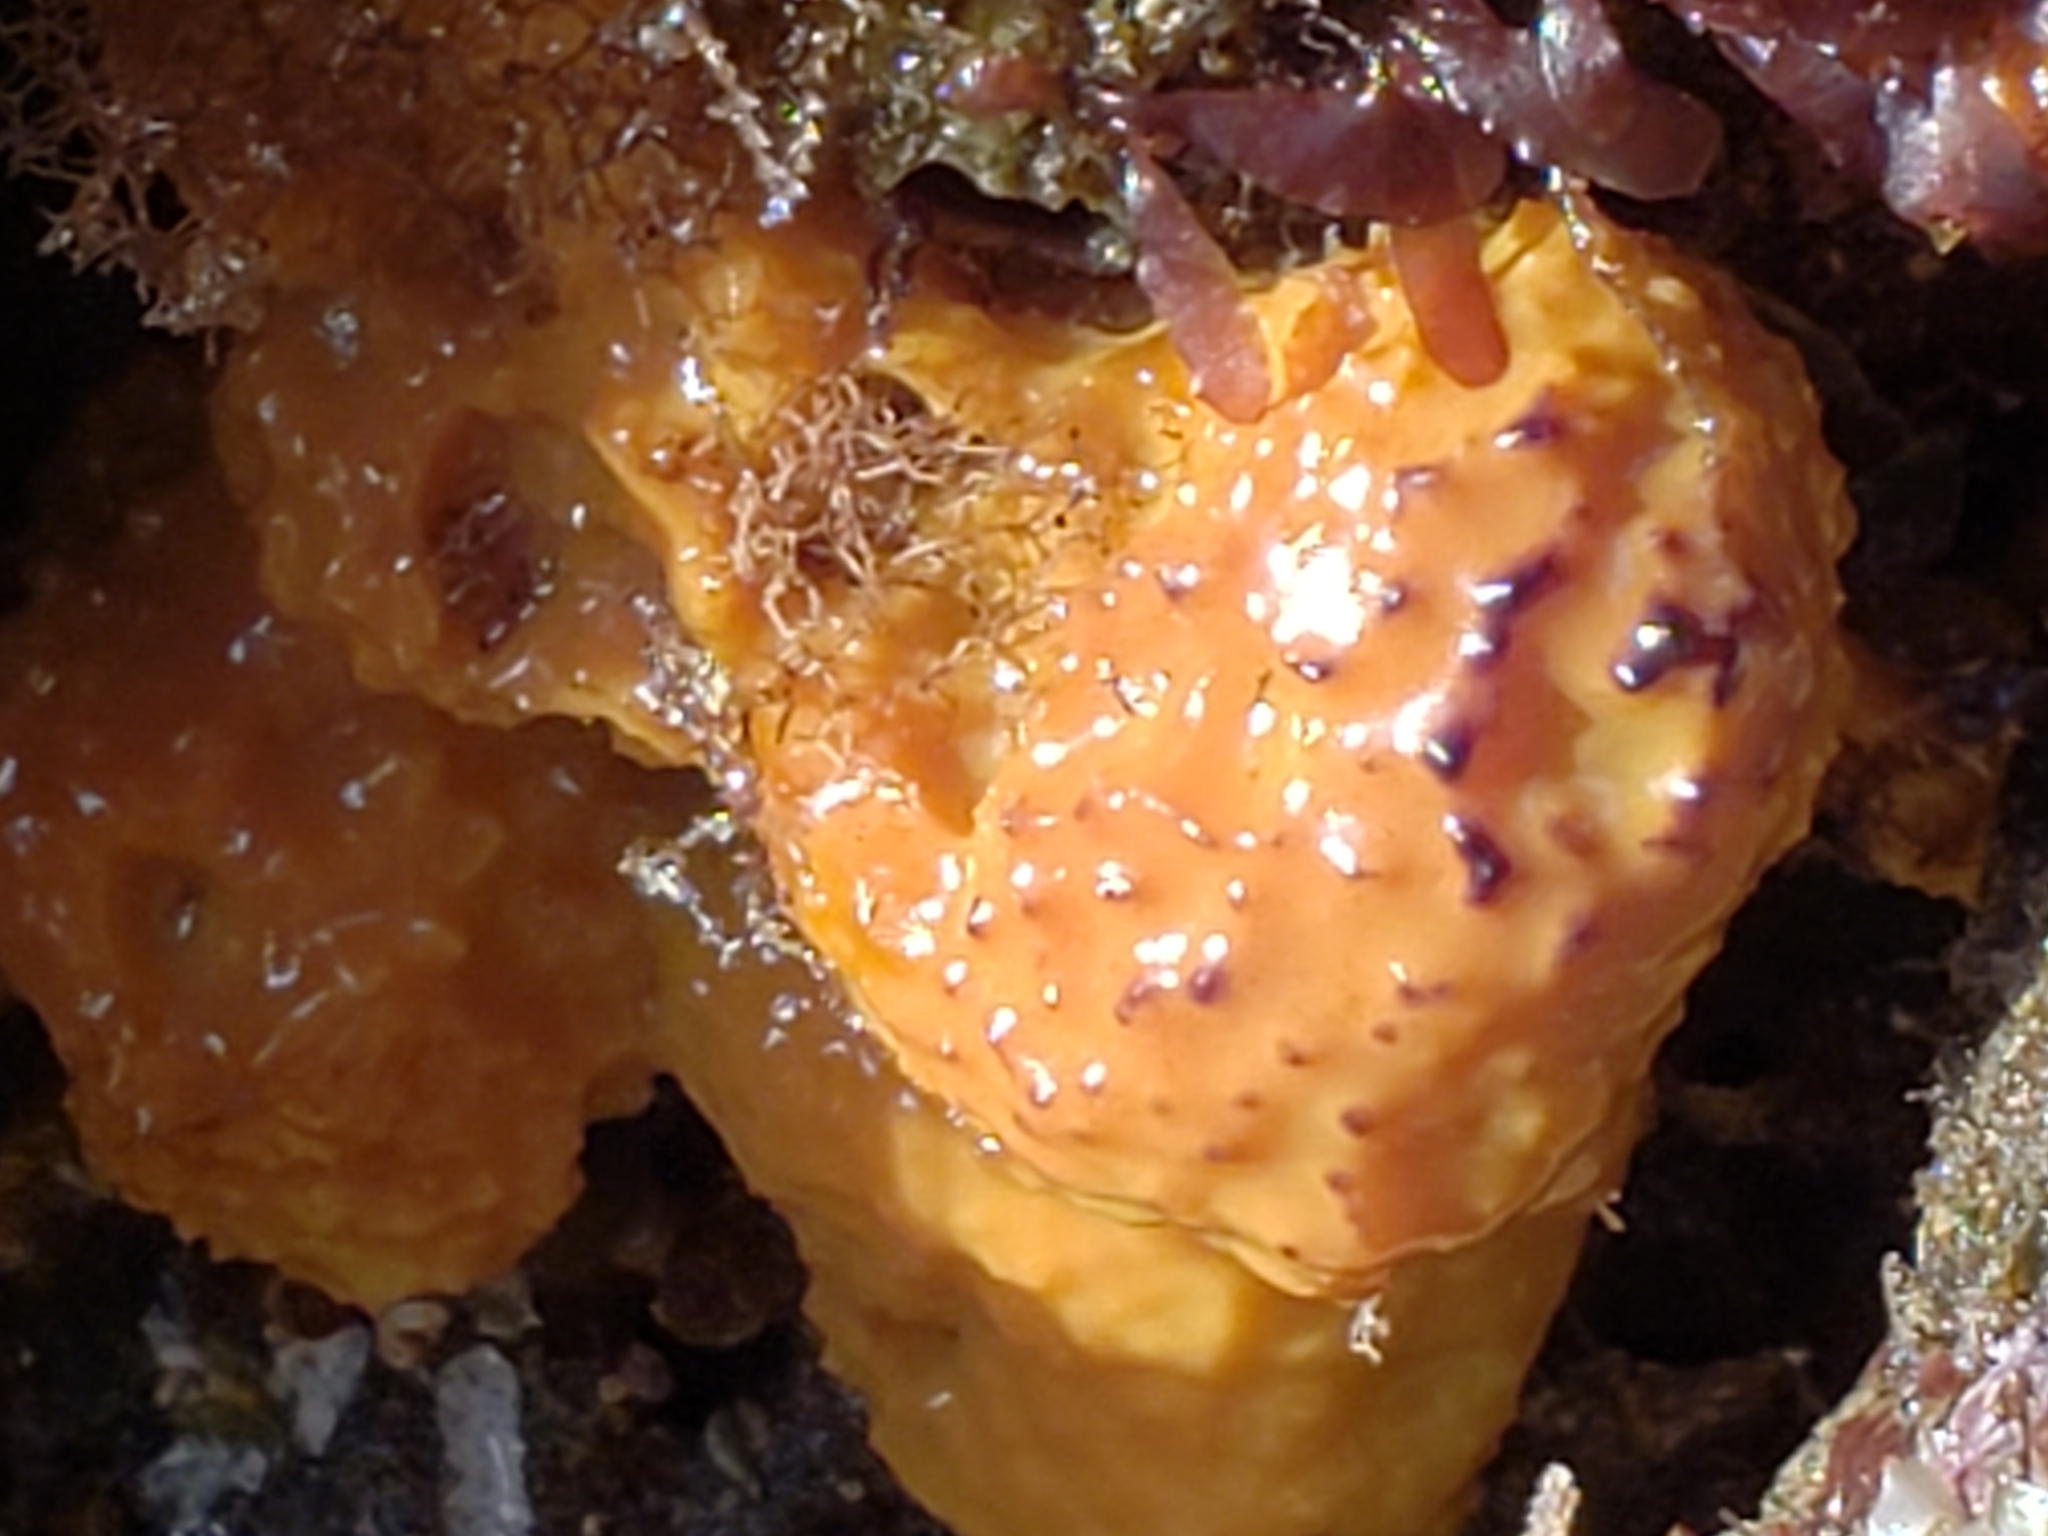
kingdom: Animalia
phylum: Porifera
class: Demospongiae
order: Verongiida
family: Aplysinidae
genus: Aiolochroia
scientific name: Aiolochroia thiona
